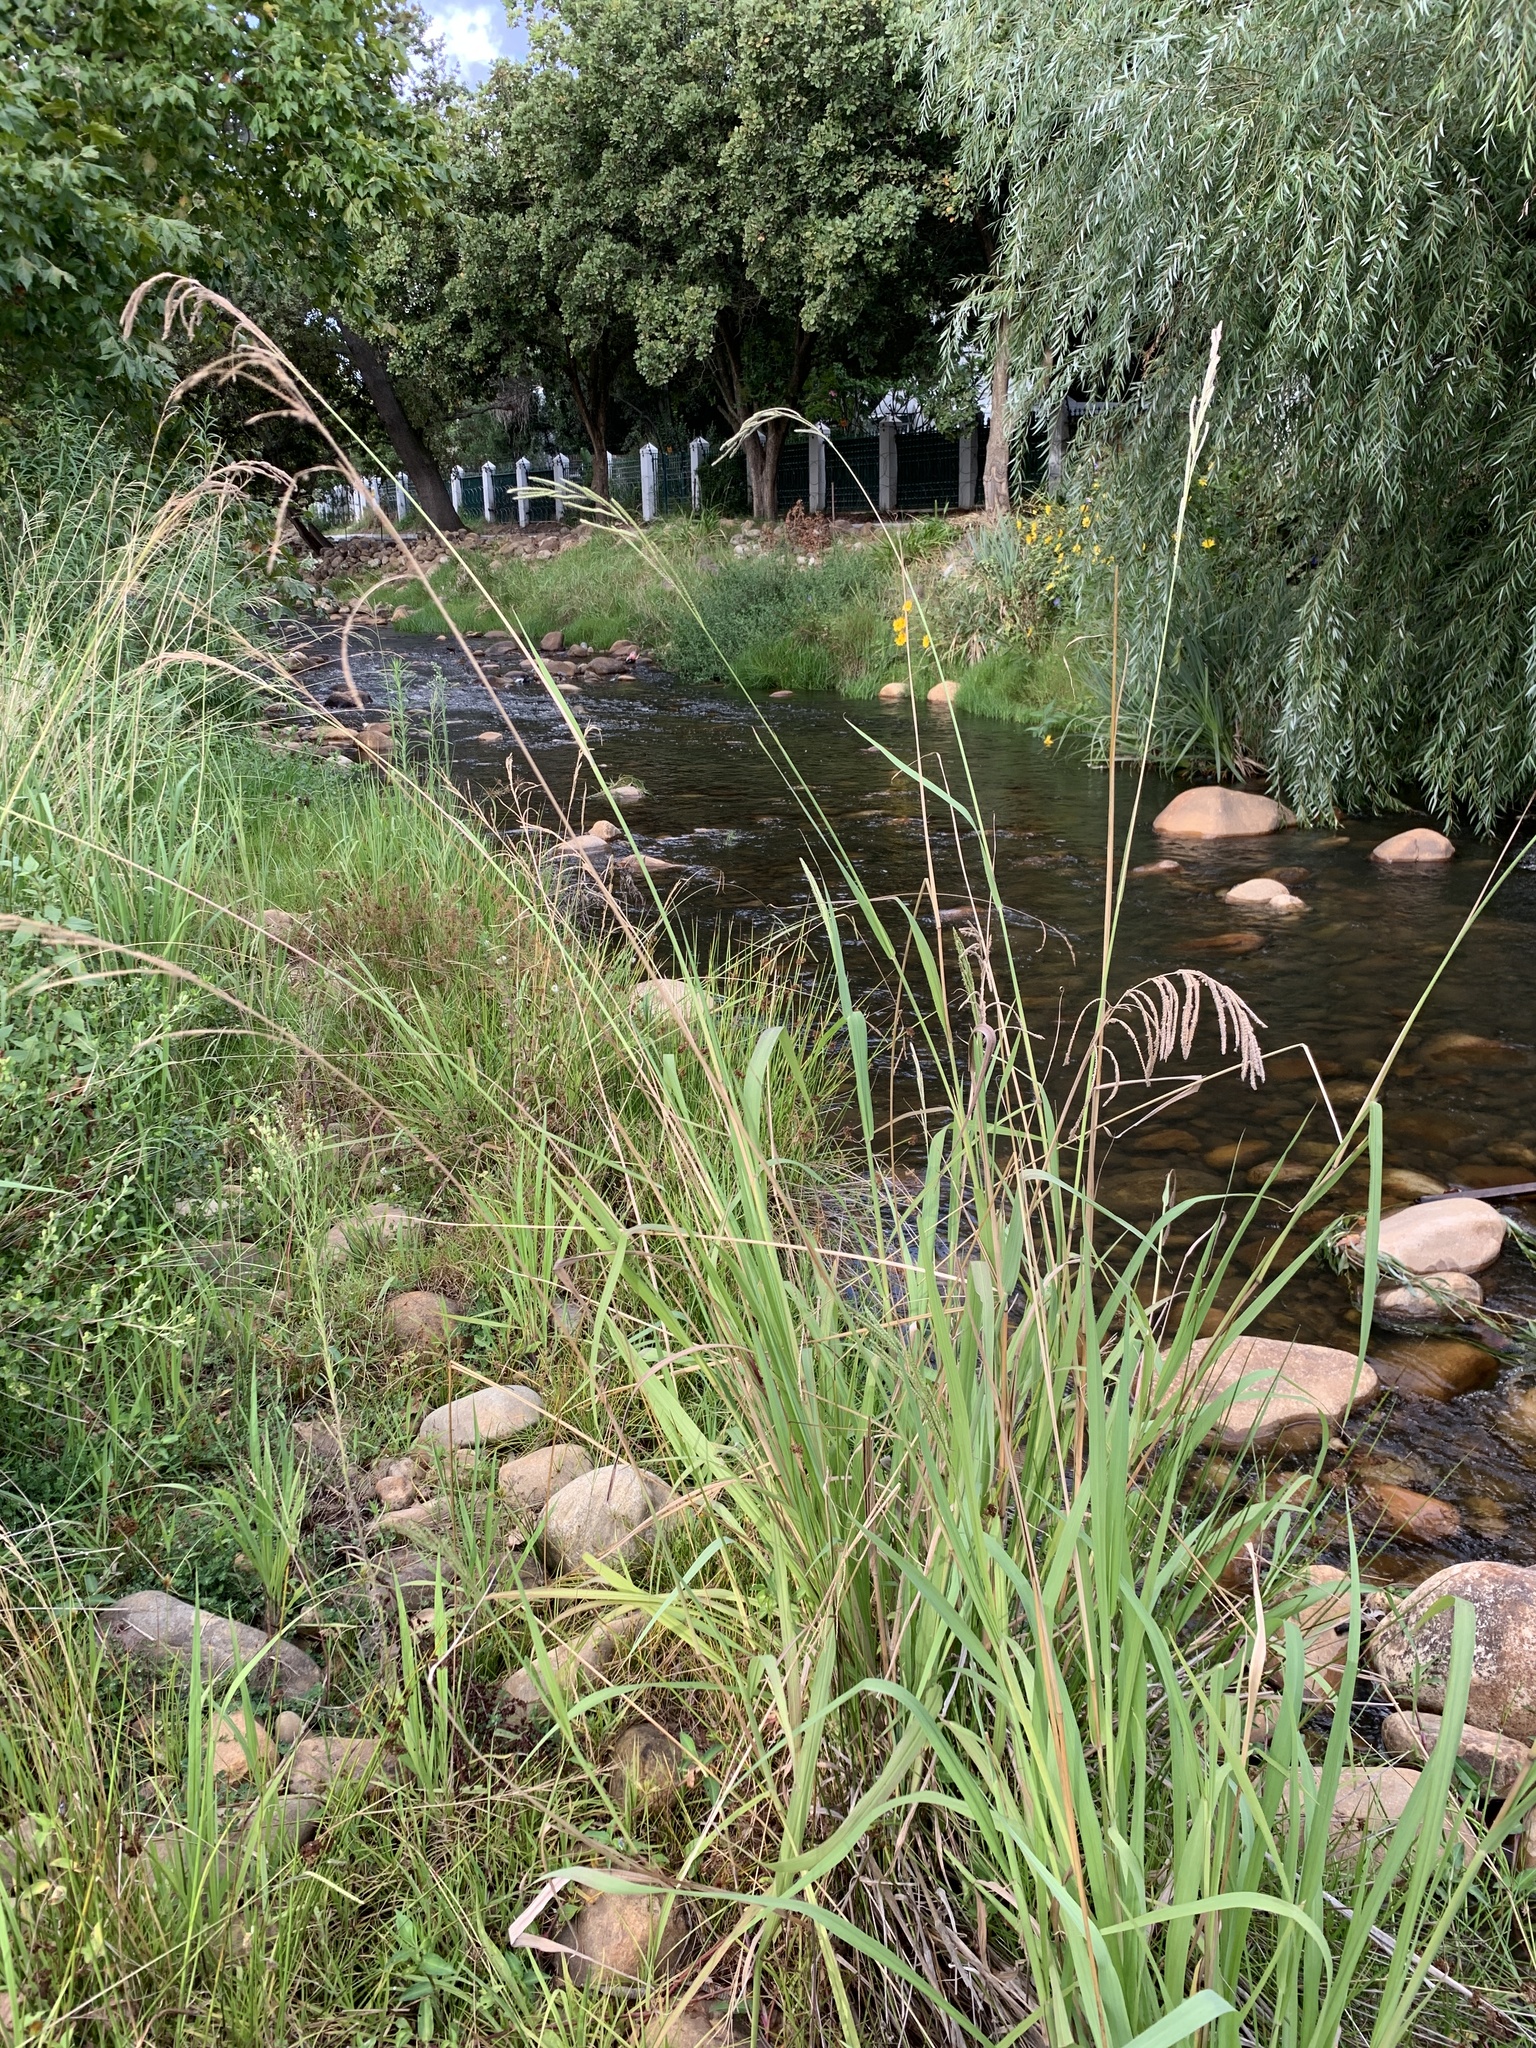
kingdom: Plantae
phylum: Tracheophyta
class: Liliopsida
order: Poales
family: Poaceae
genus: Paspalum
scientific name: Paspalum urvillei
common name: Vasey's grass
